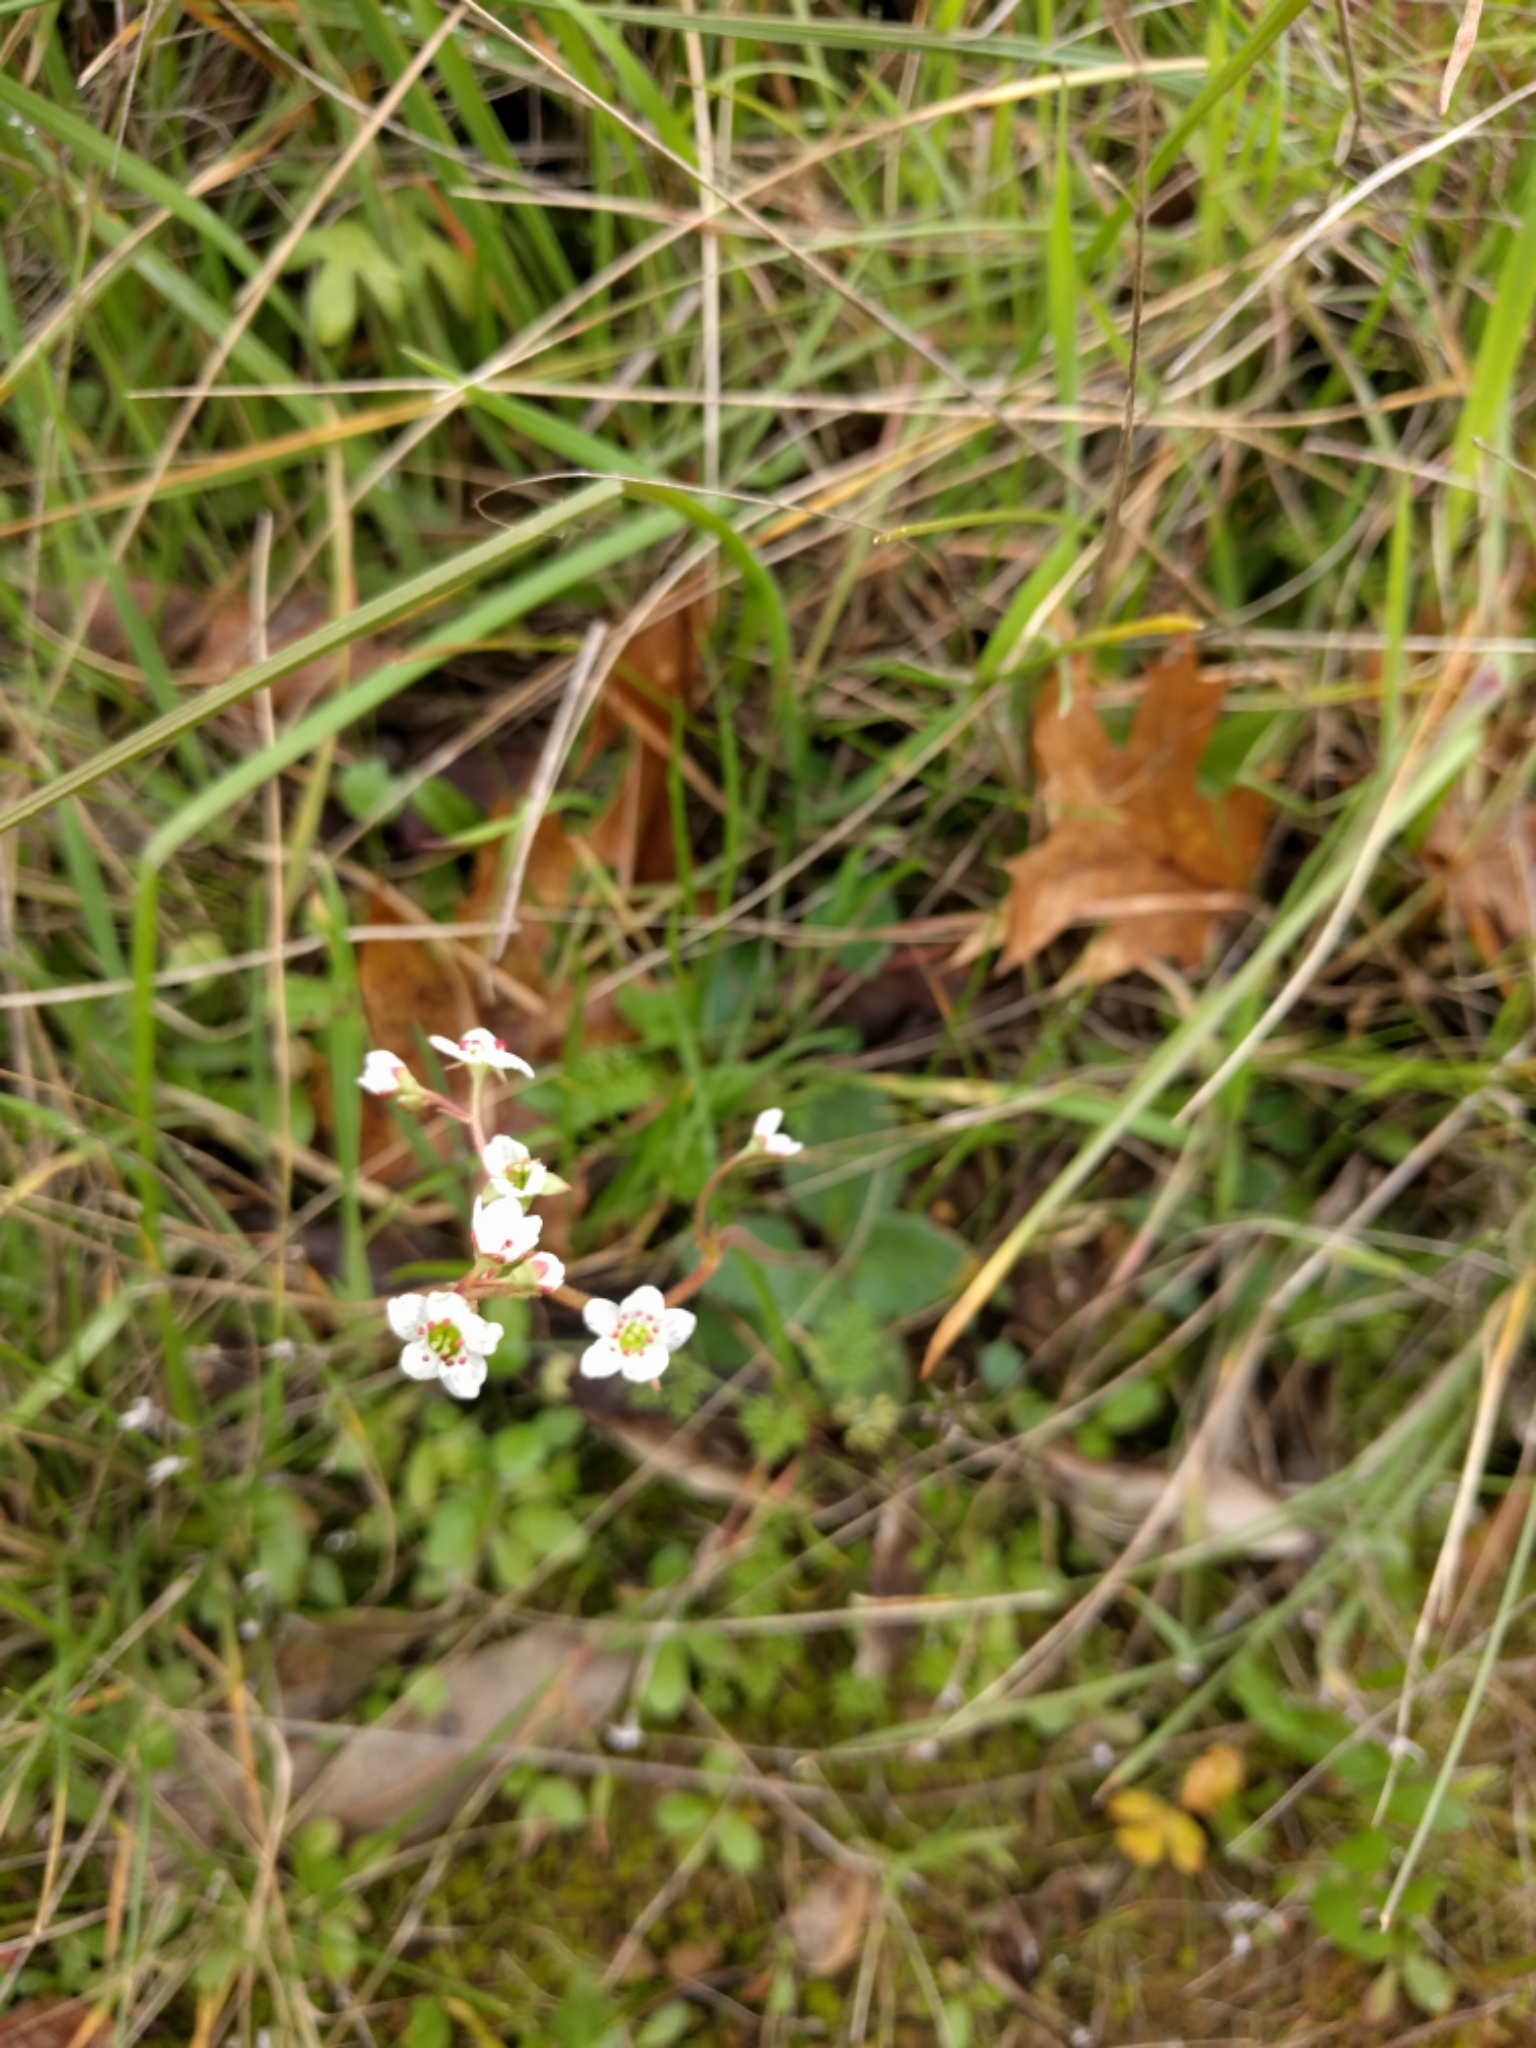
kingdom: Plantae
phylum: Tracheophyta
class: Magnoliopsida
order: Saxifragales
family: Saxifragaceae
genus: Micranthes
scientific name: Micranthes californica
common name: California saxifrage
